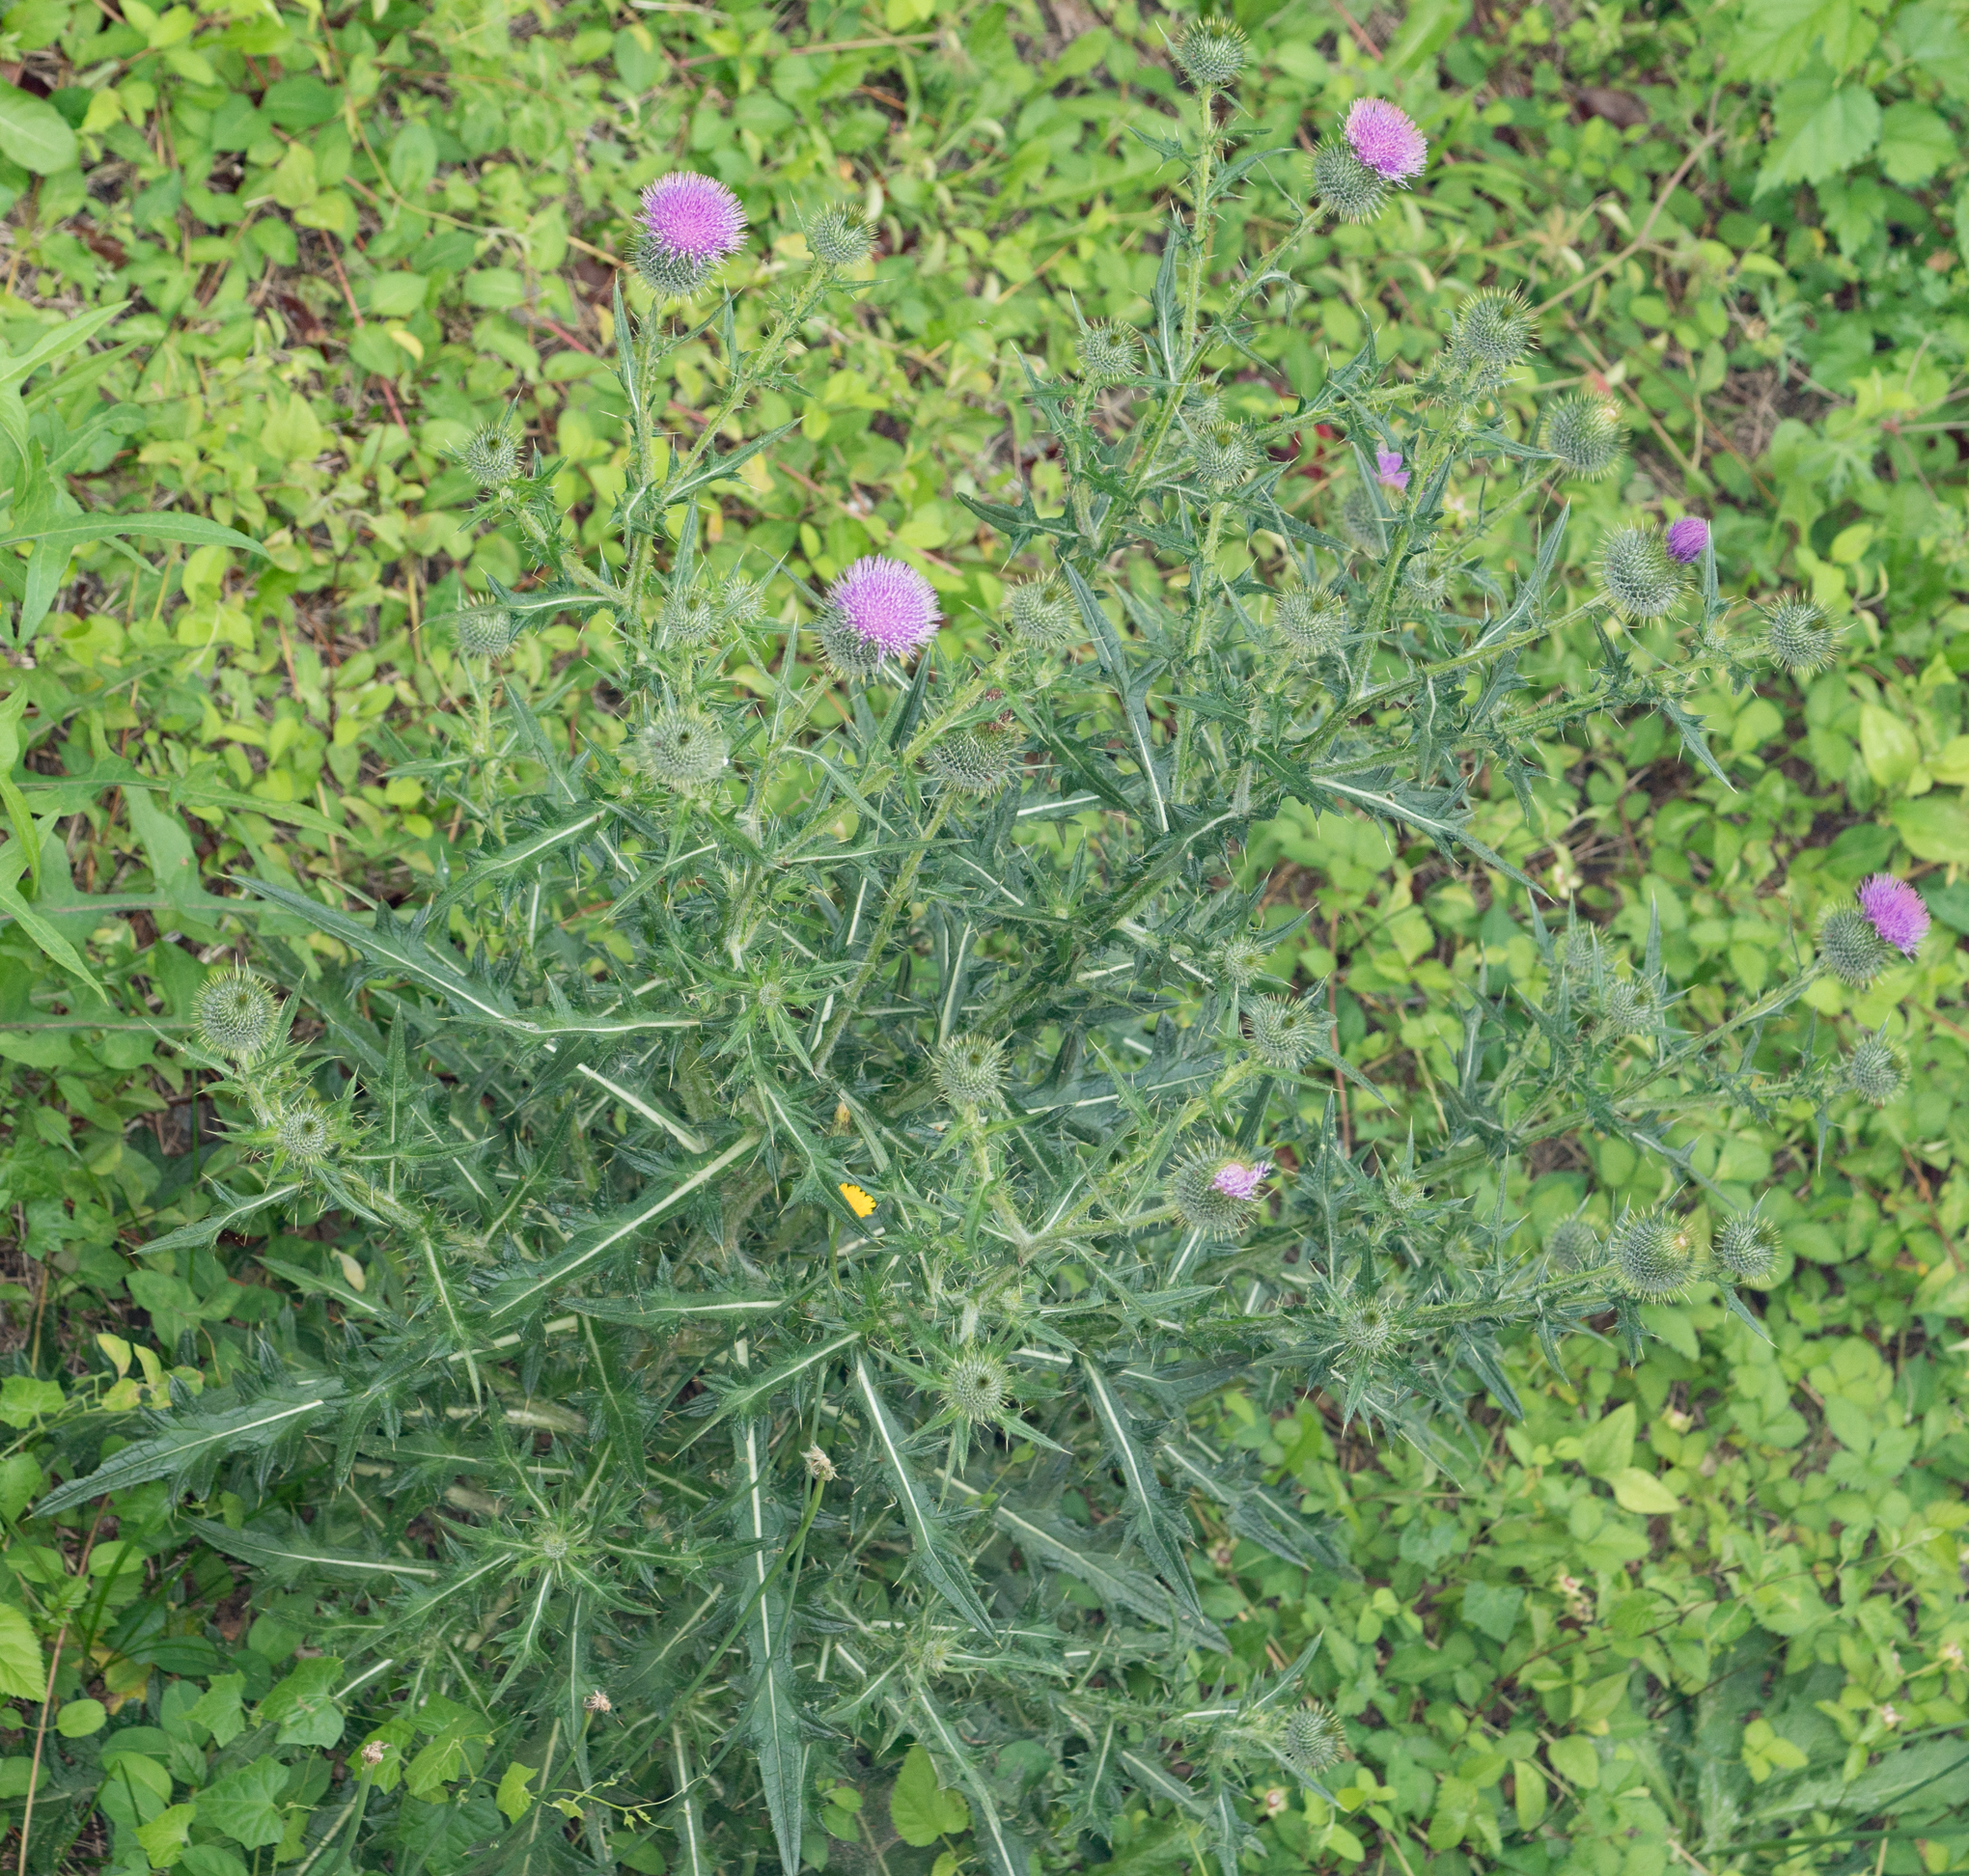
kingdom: Plantae
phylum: Tracheophyta
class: Magnoliopsida
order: Asterales
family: Asteraceae
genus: Cirsium
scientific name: Cirsium vulgare
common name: Bull thistle
